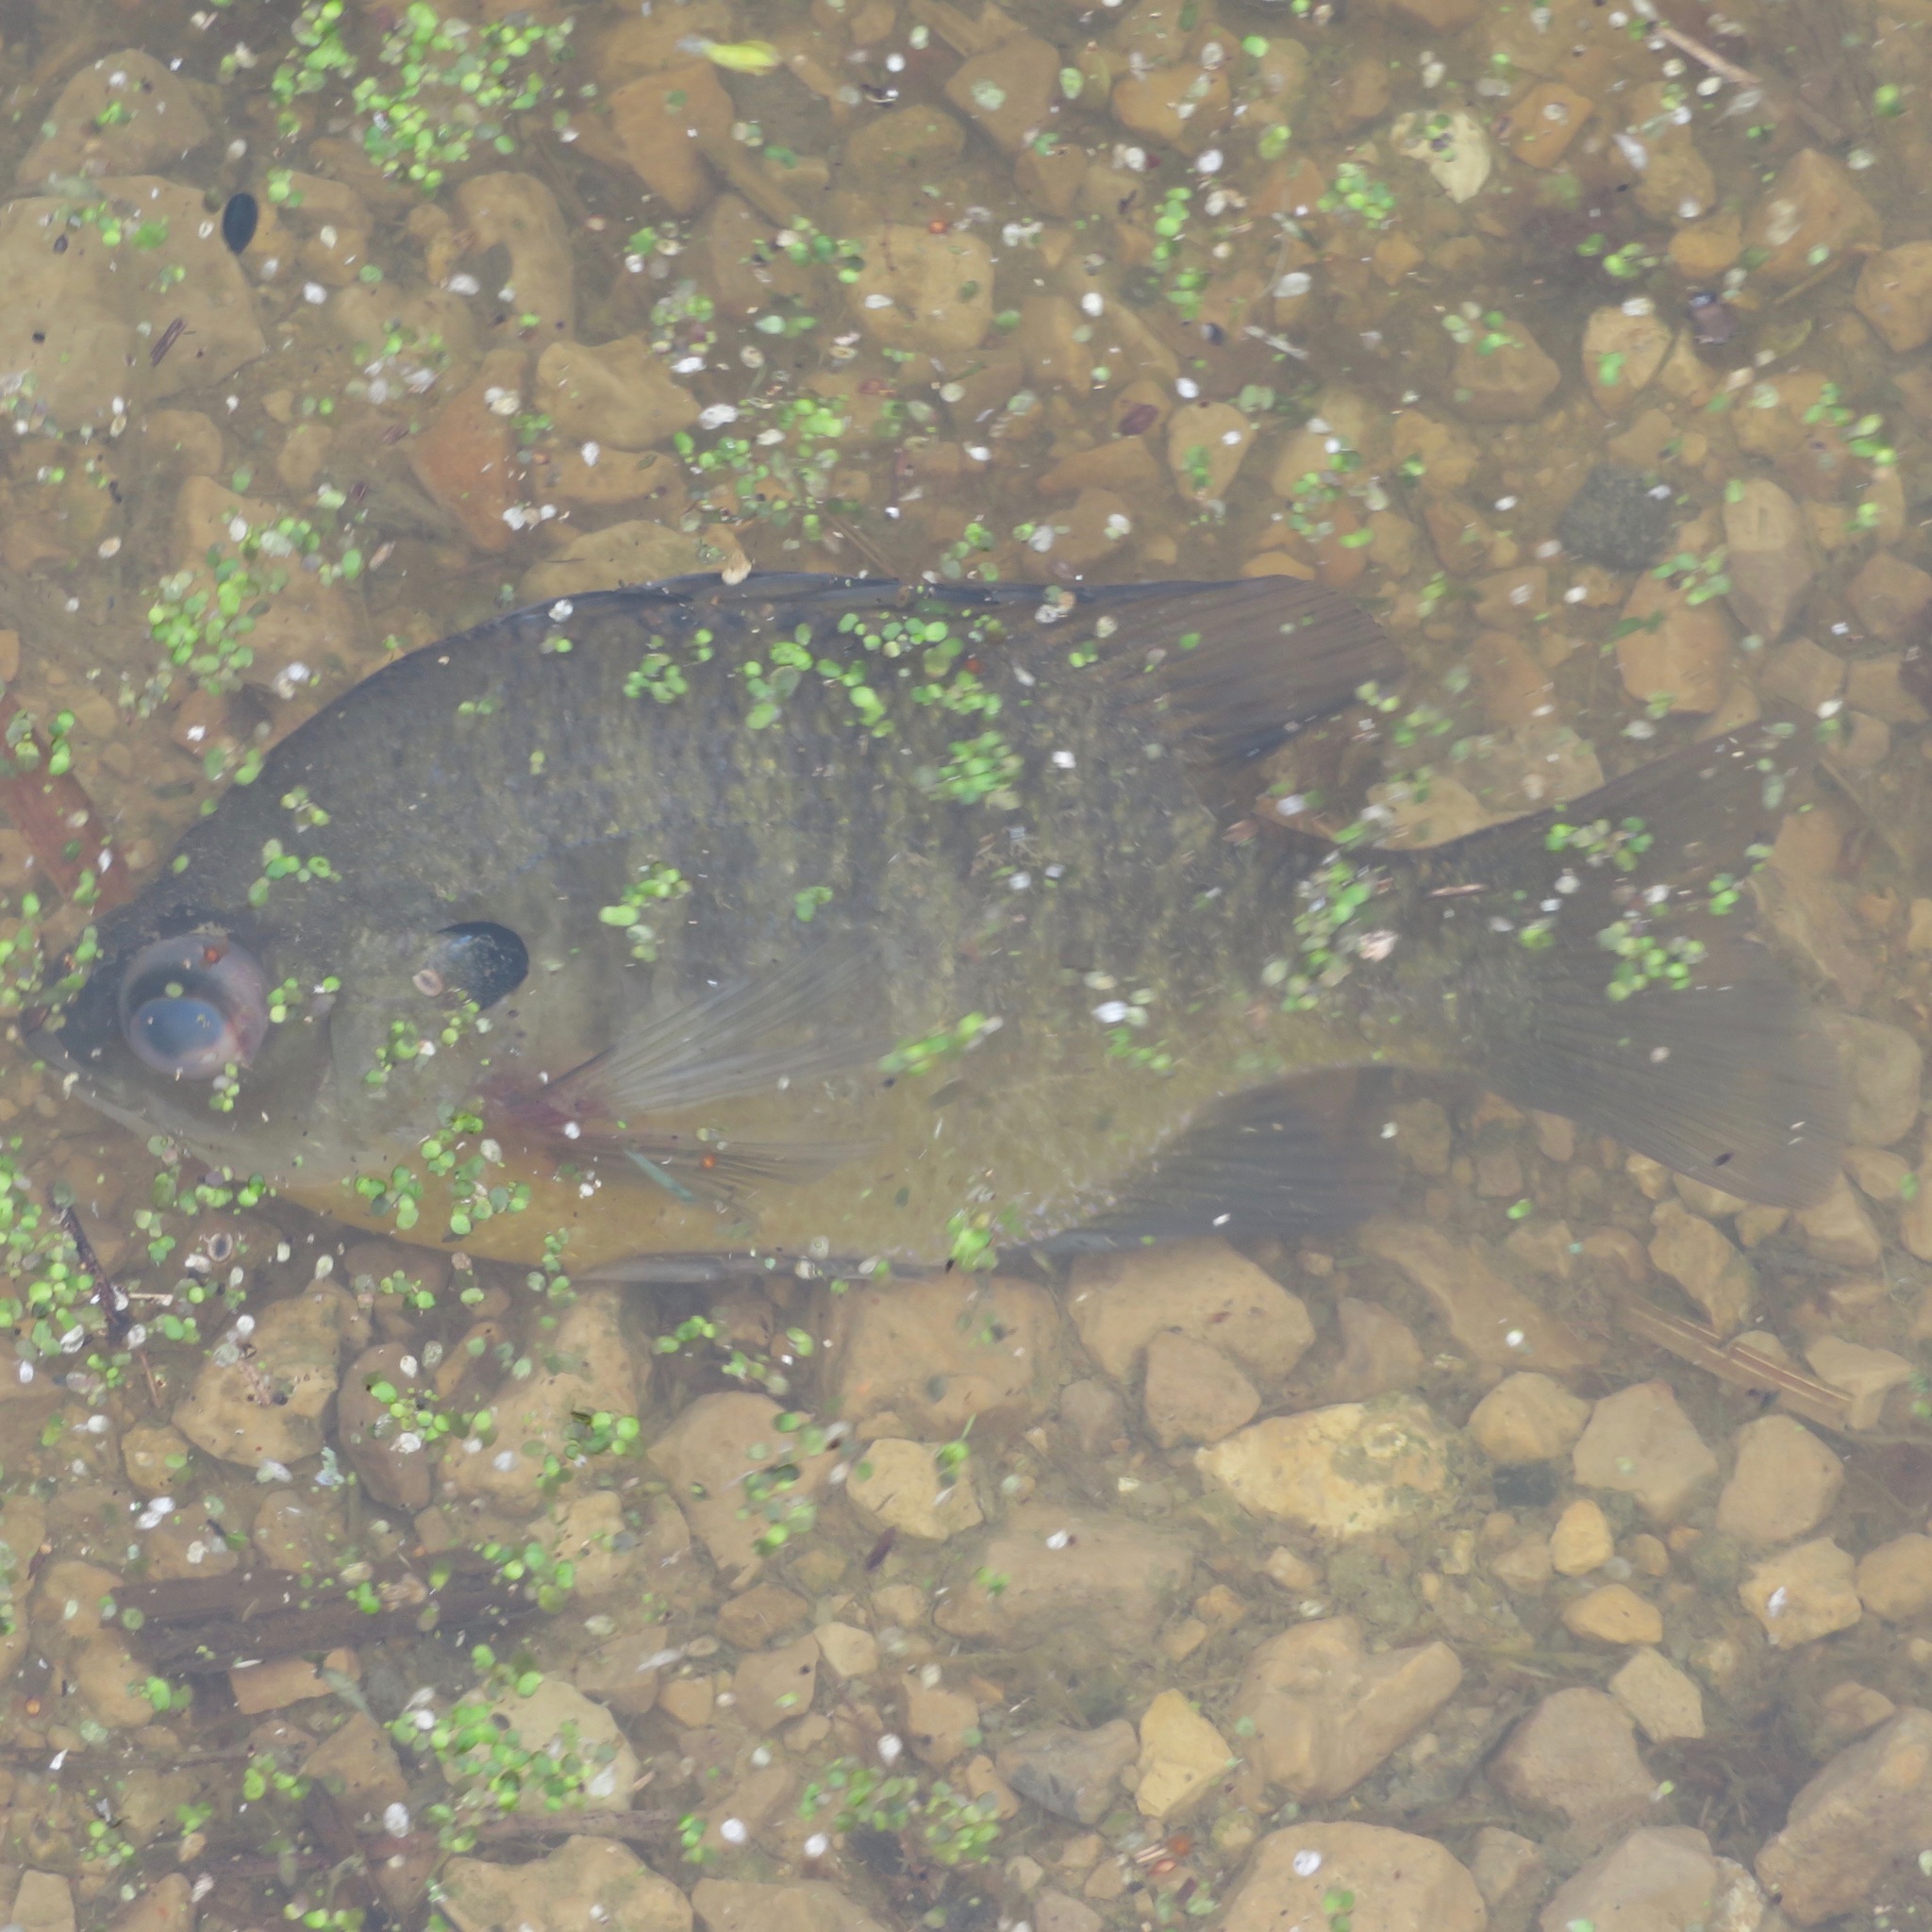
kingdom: Animalia
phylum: Chordata
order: Perciformes
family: Centrarchidae
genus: Lepomis
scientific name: Lepomis macrochirus
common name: Bluegill
